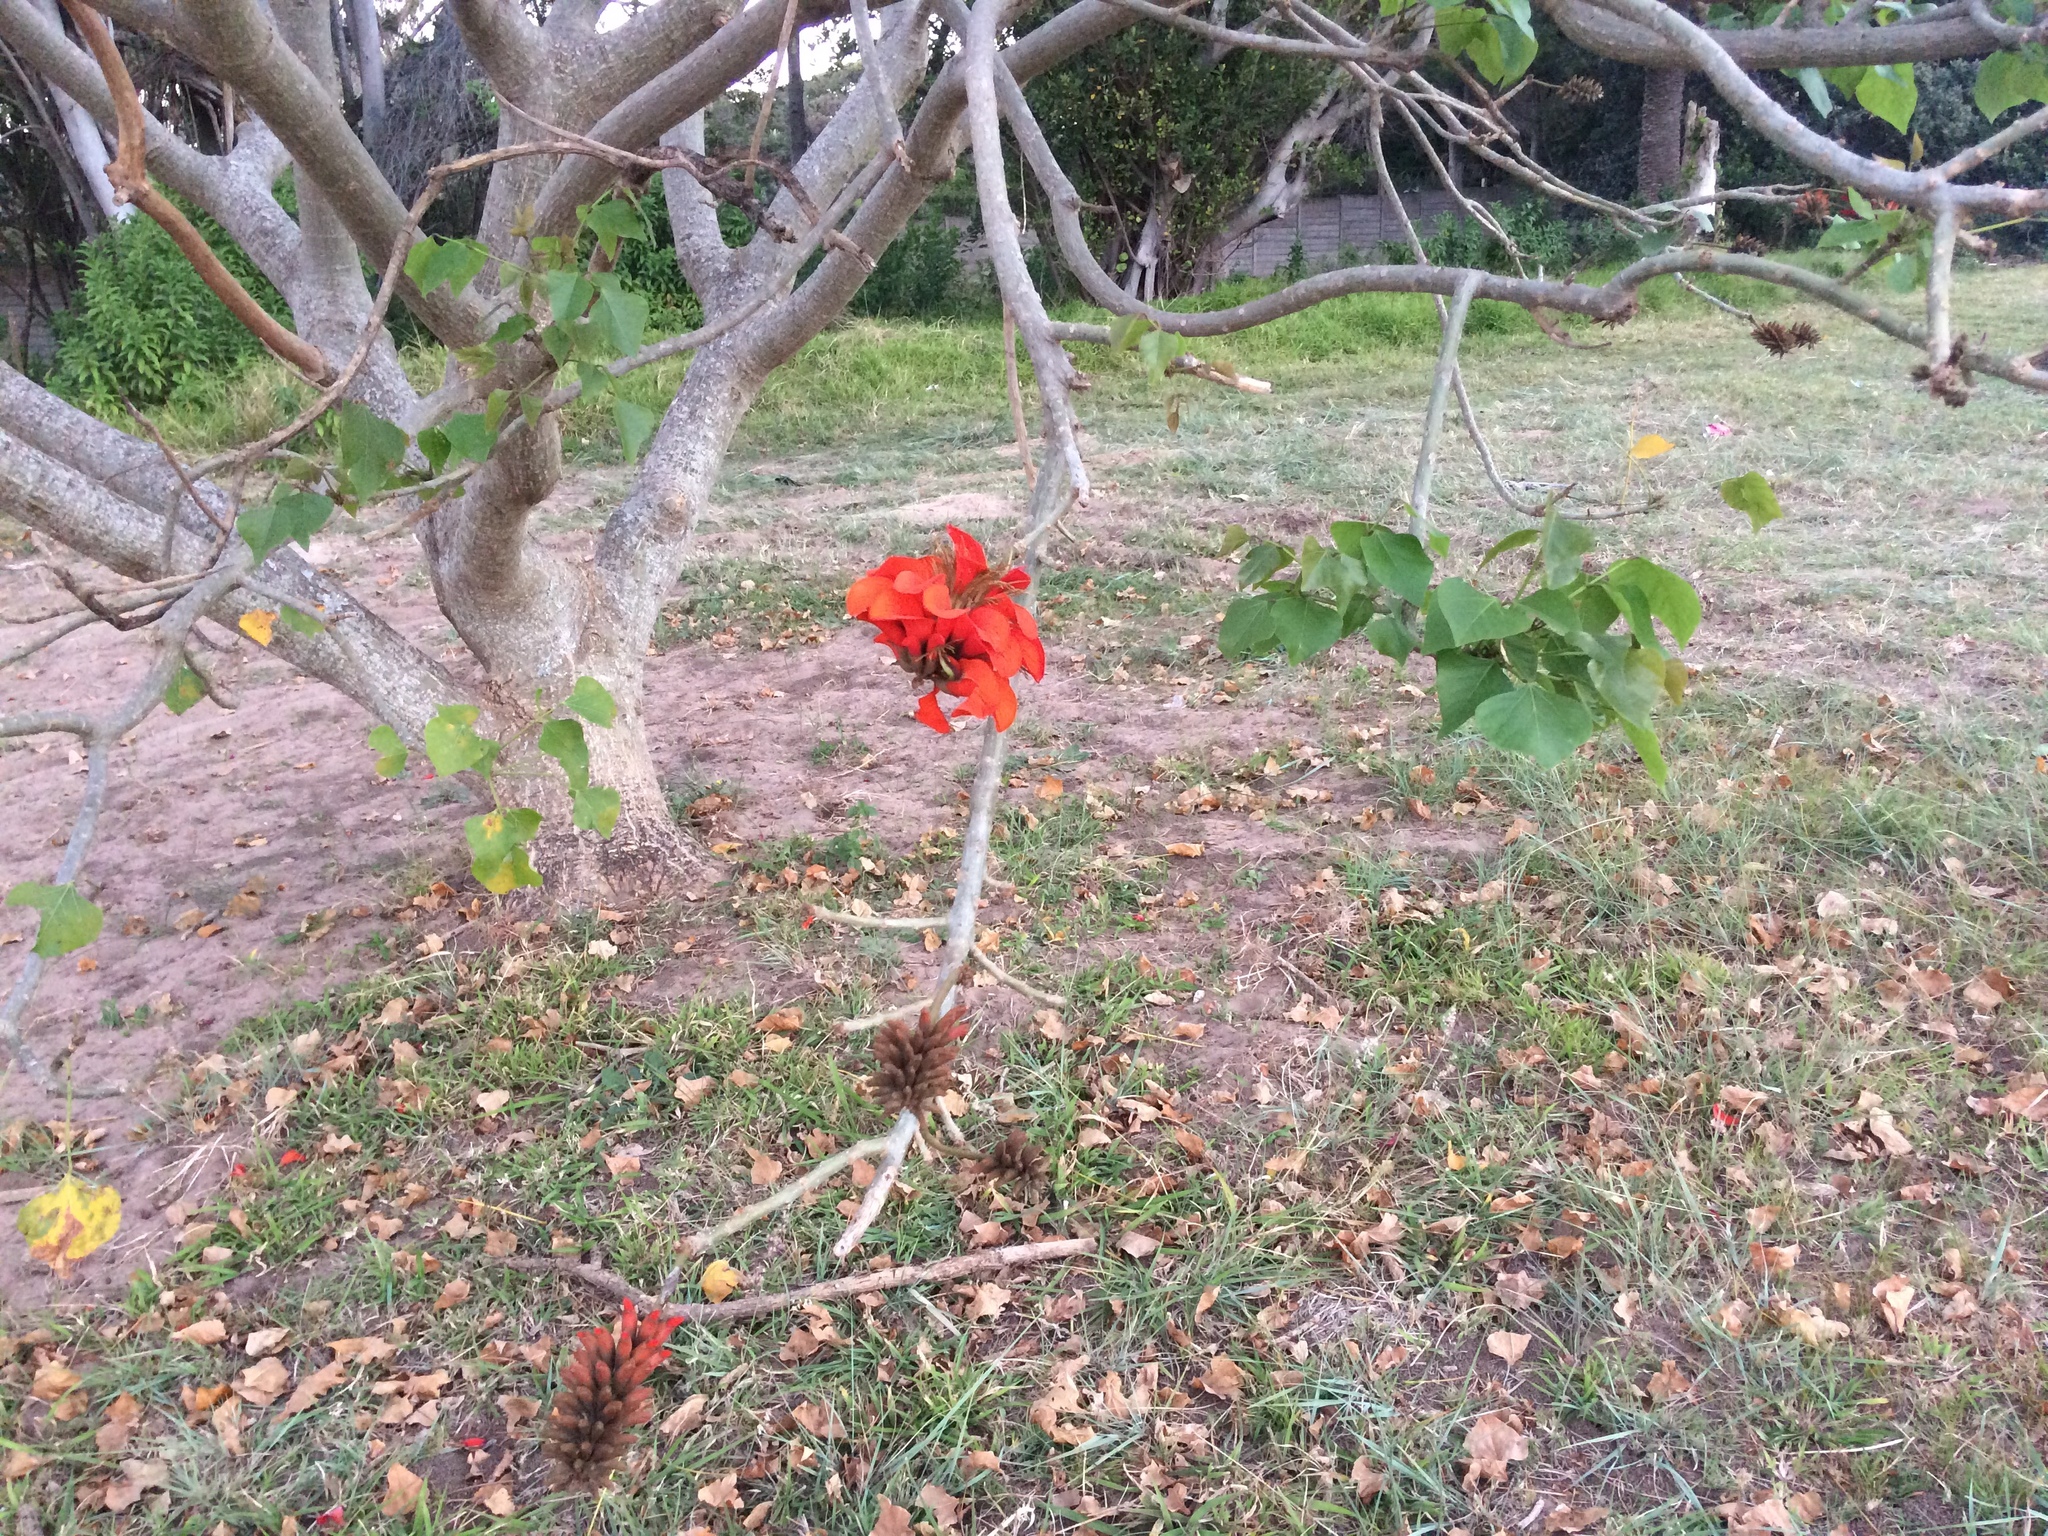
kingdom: Plantae
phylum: Tracheophyta
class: Magnoliopsida
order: Fabales
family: Fabaceae
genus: Erythrina
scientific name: Erythrina caffra
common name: Coast coral tree
